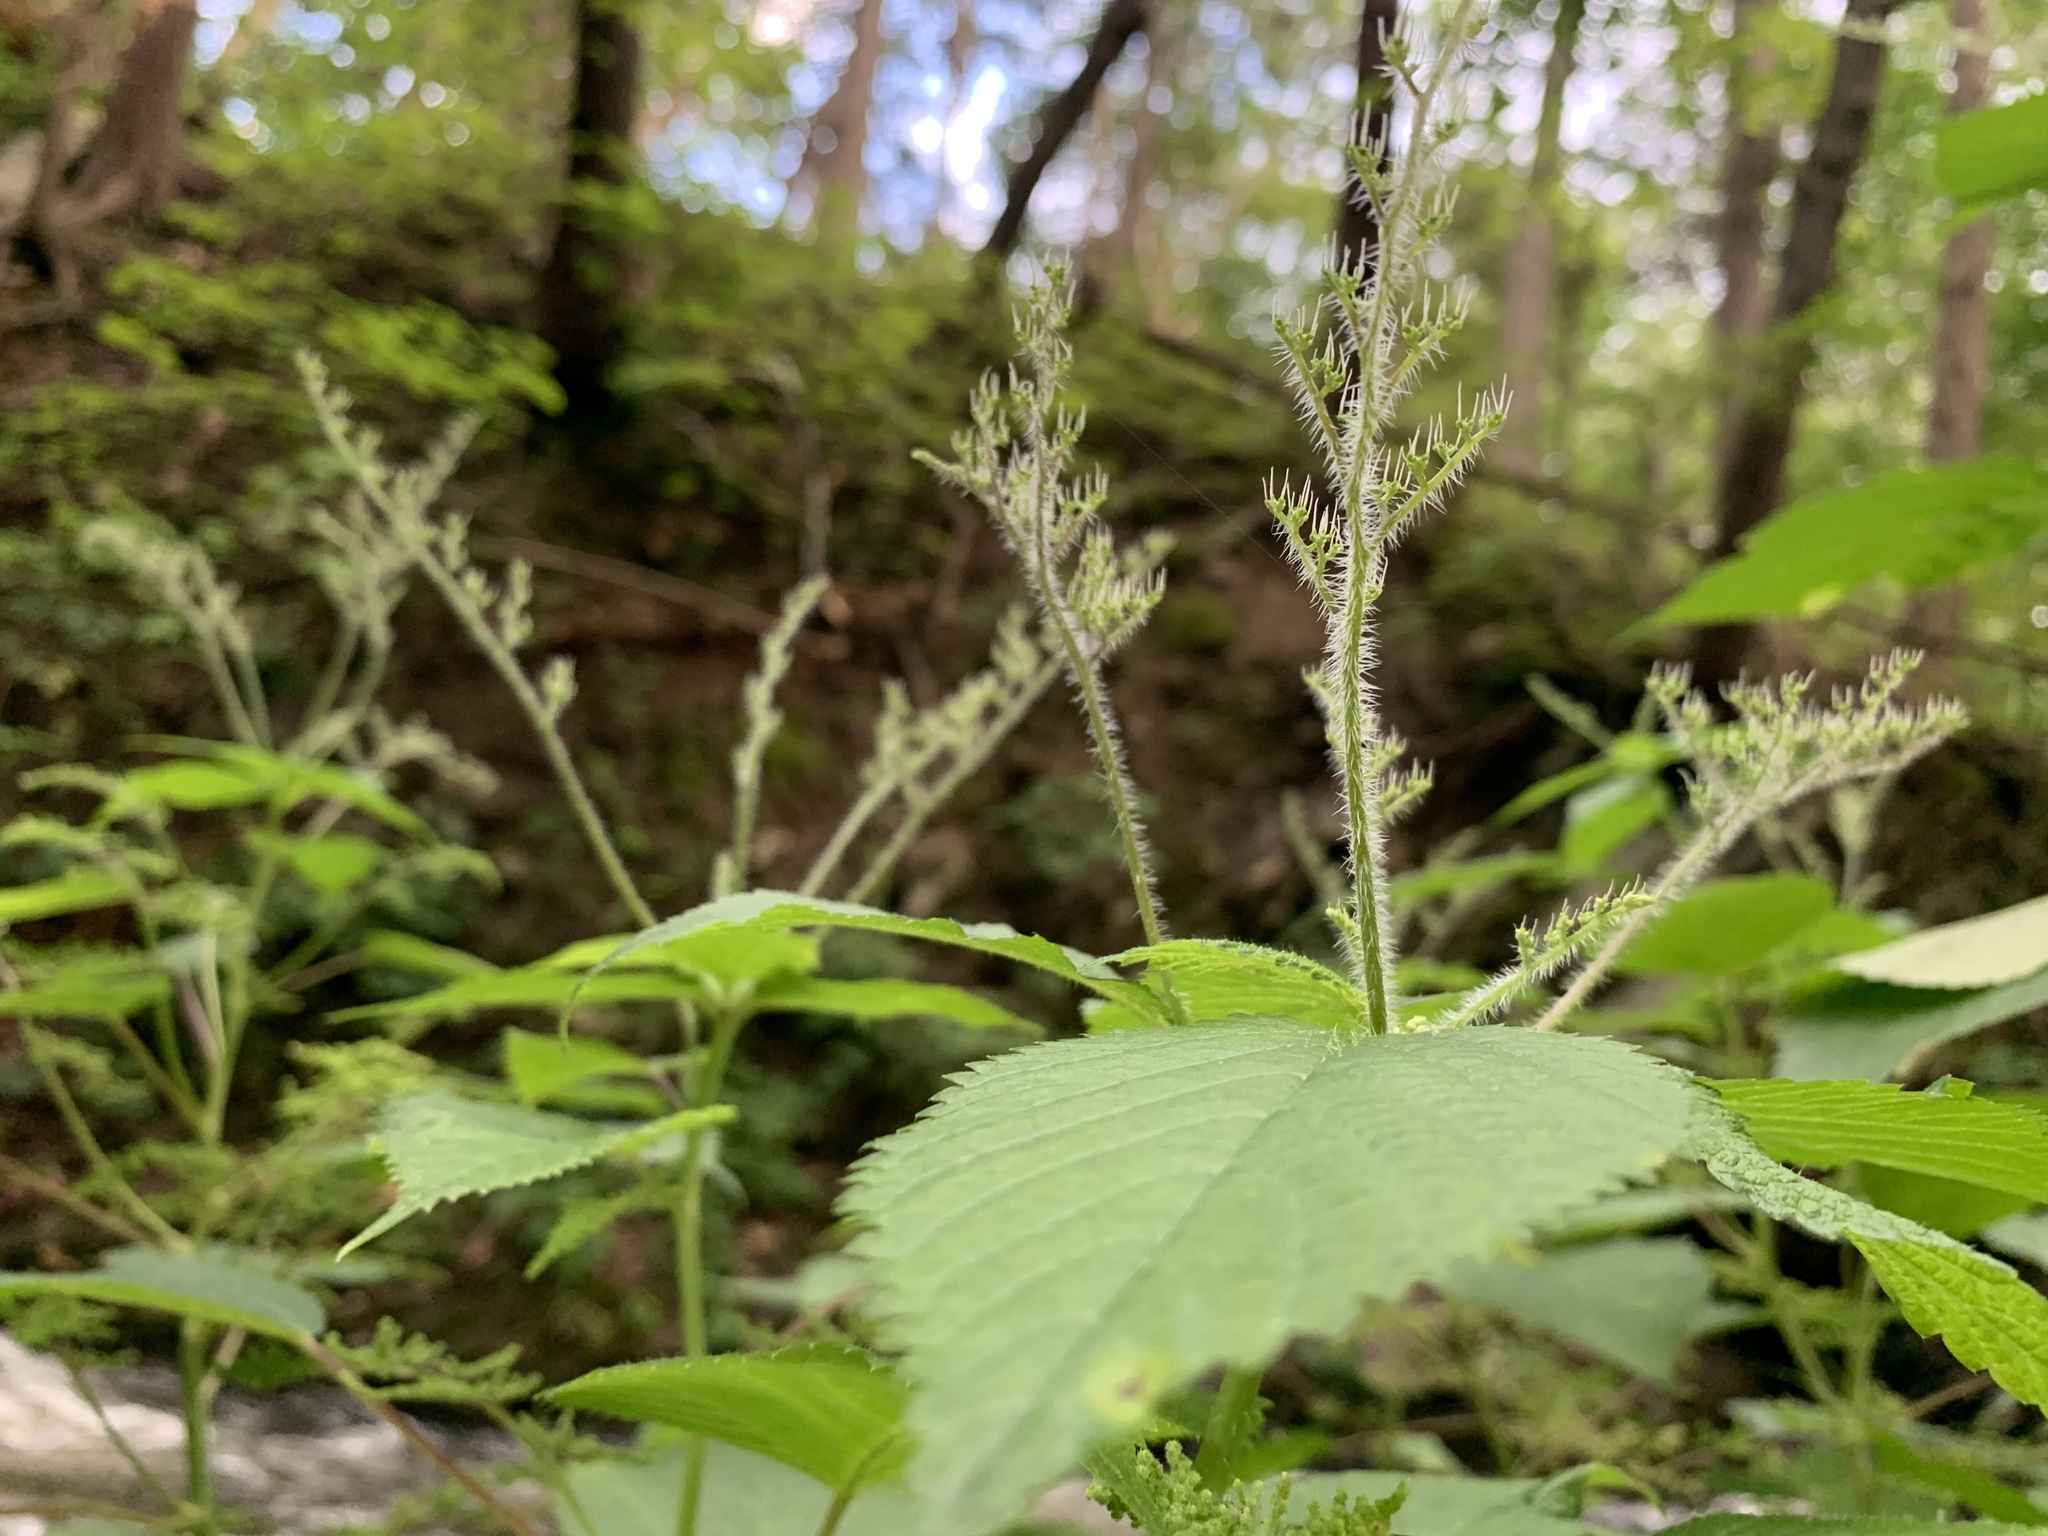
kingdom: Plantae
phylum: Tracheophyta
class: Magnoliopsida
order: Rosales
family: Urticaceae
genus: Laportea
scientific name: Laportea canadensis
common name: Canada nettle
